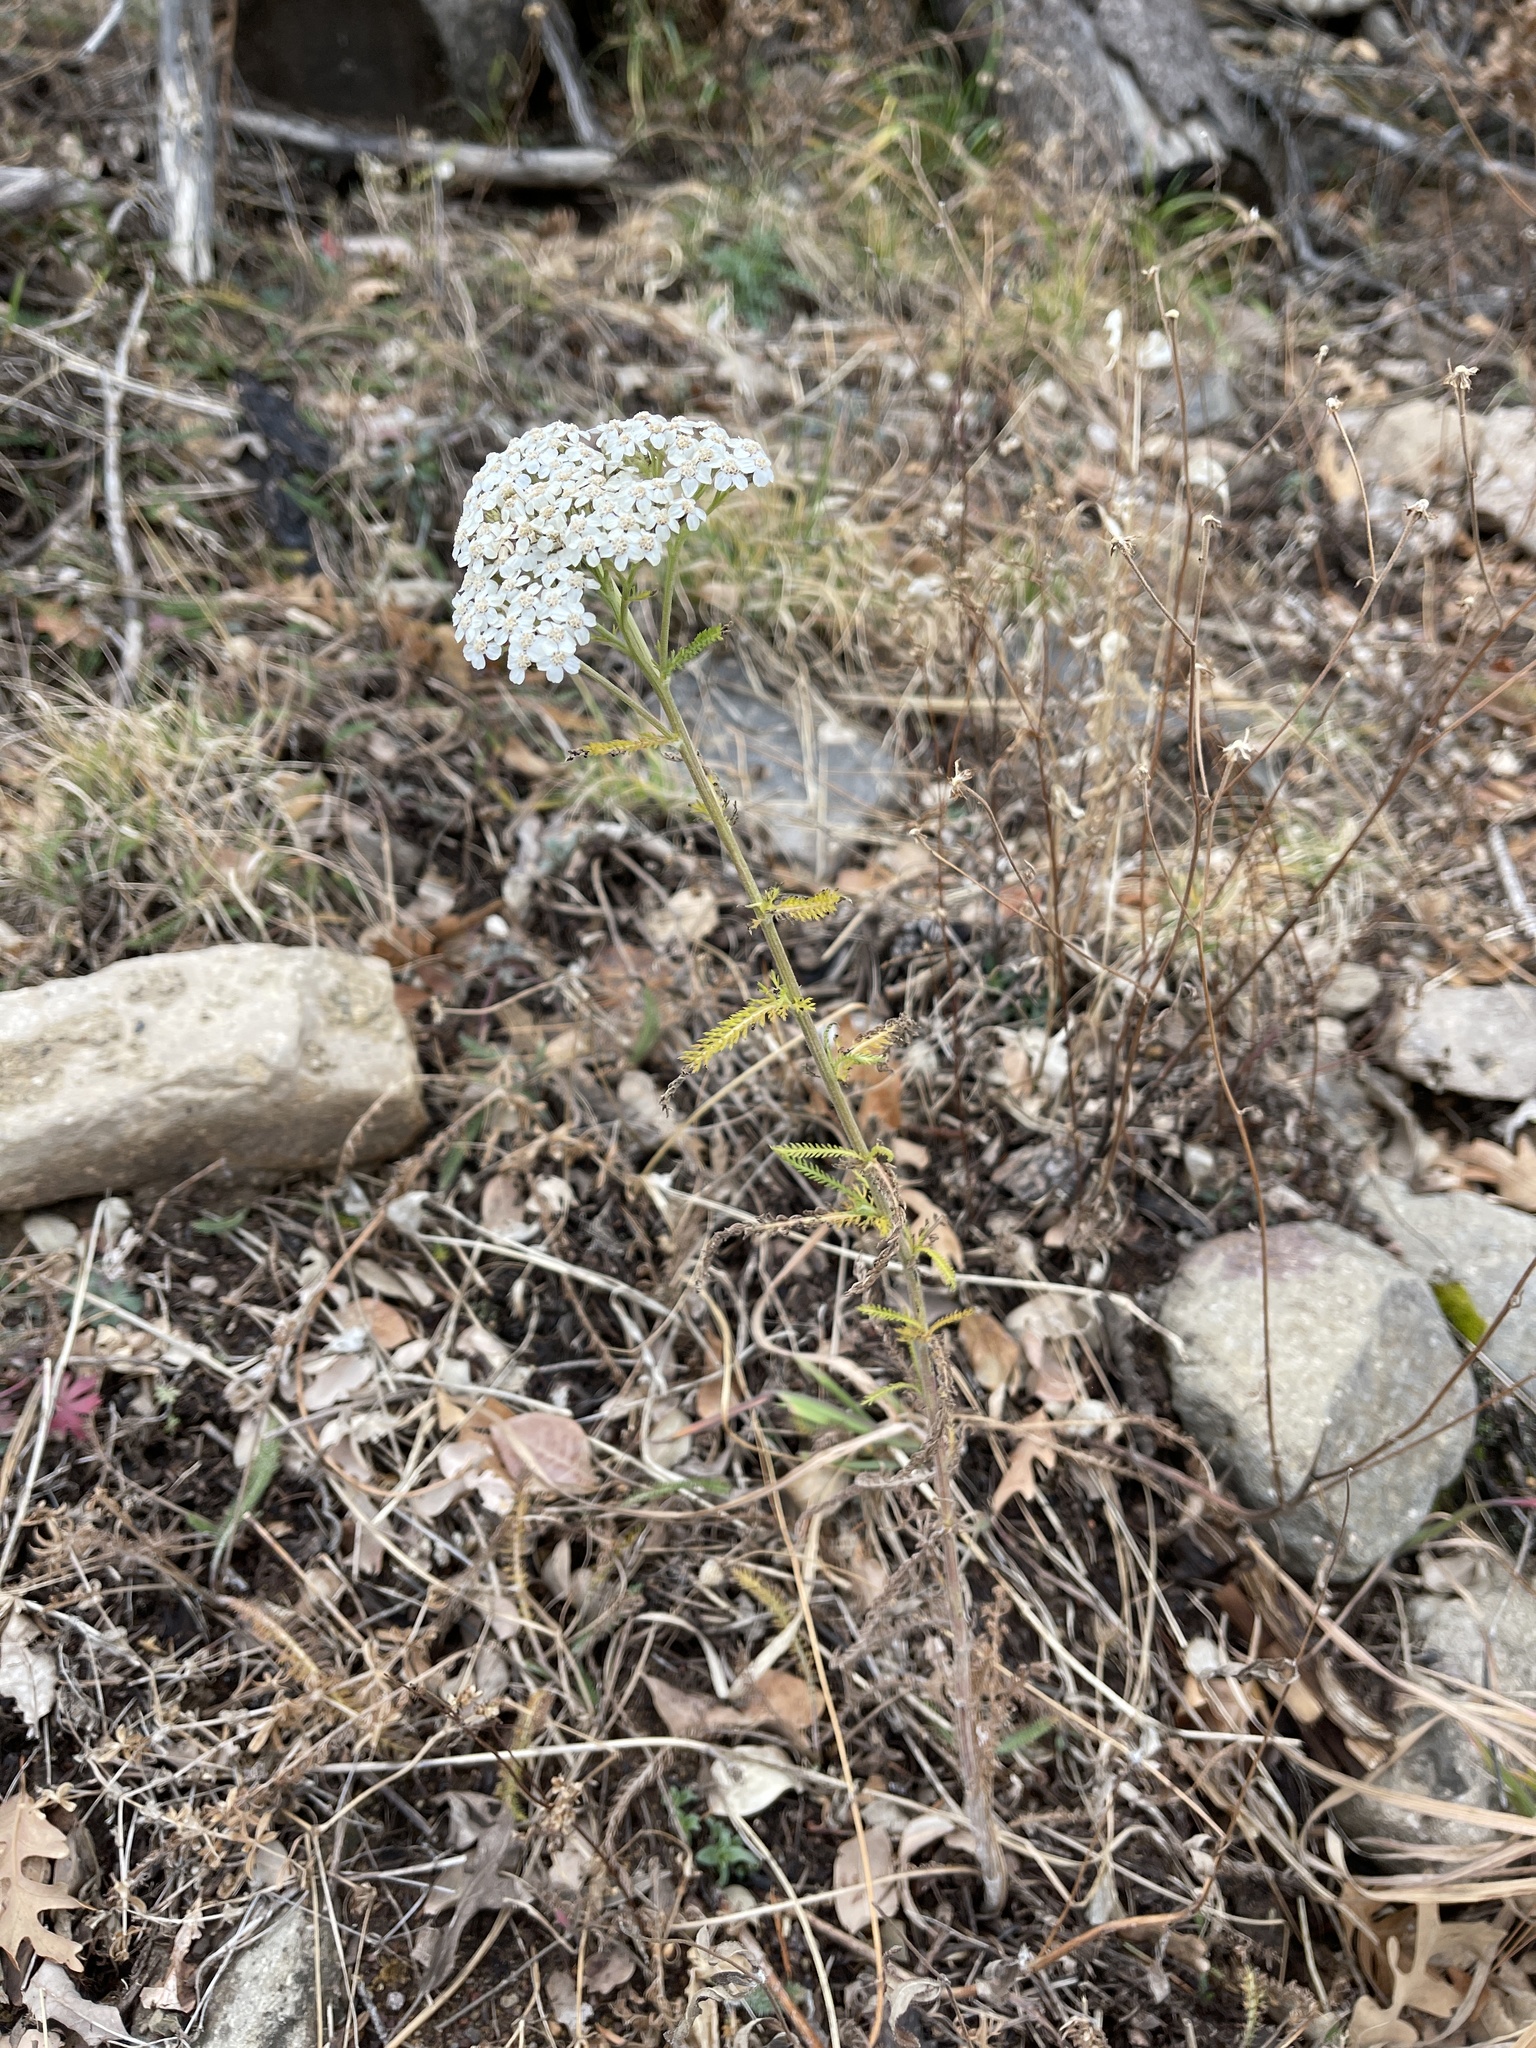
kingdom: Plantae
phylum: Tracheophyta
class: Magnoliopsida
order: Asterales
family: Asteraceae
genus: Achillea
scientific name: Achillea millefolium
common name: Yarrow
